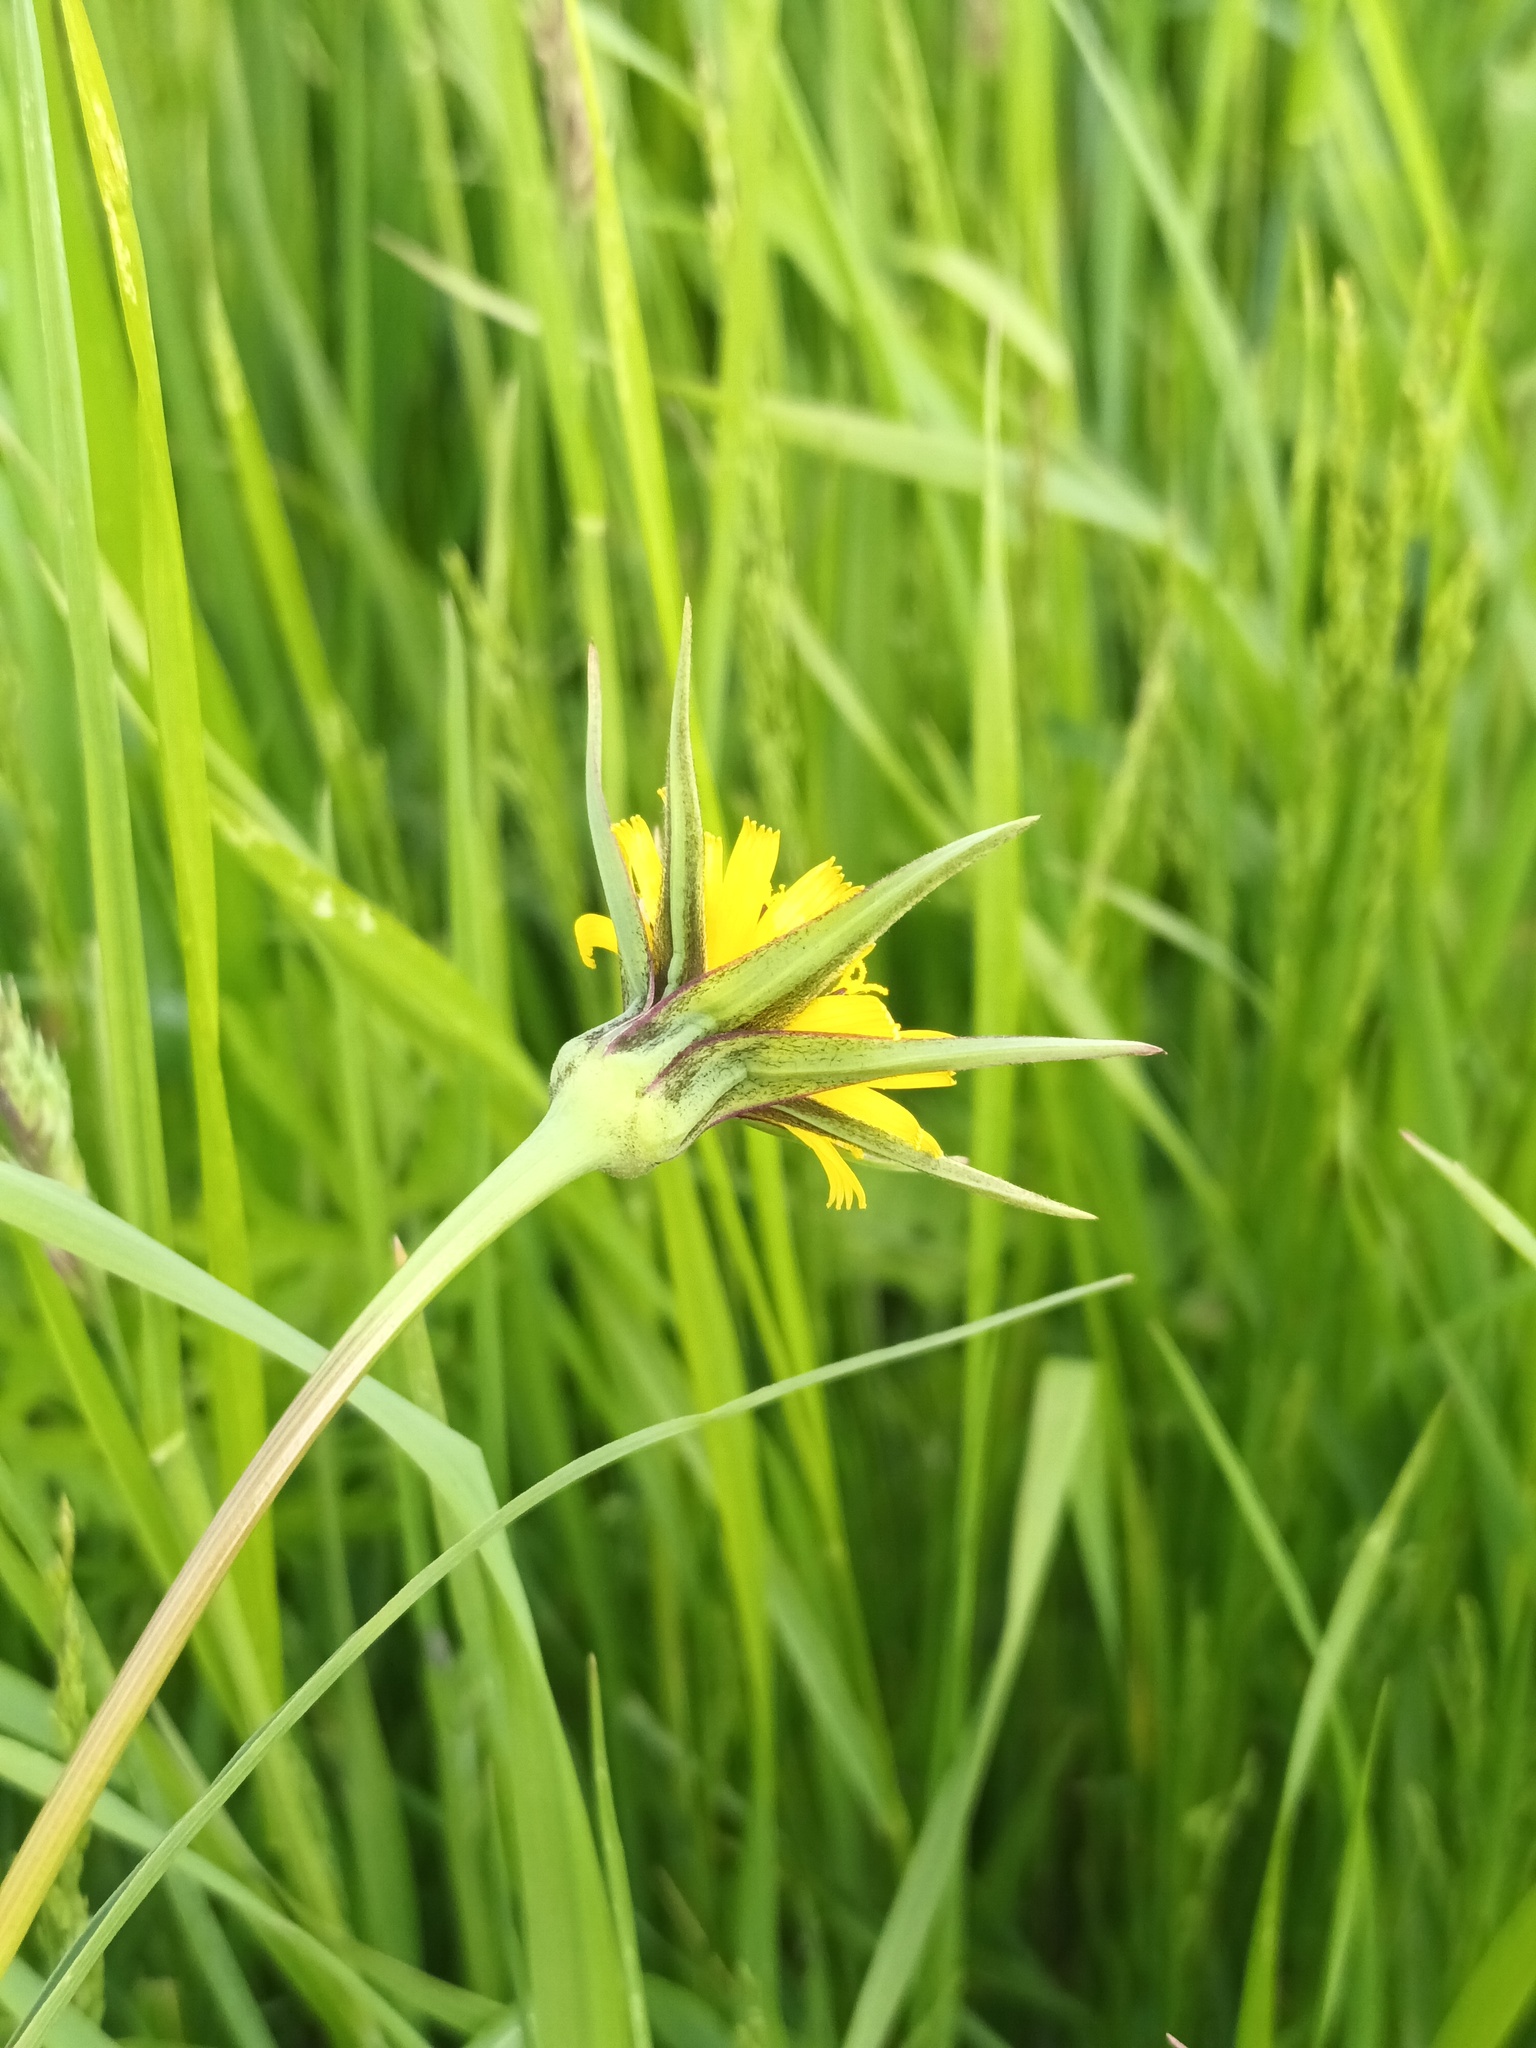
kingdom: Plantae
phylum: Tracheophyta
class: Magnoliopsida
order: Asterales
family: Asteraceae
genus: Tragopogon
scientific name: Tragopogon pratensis
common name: Goat's-beard
